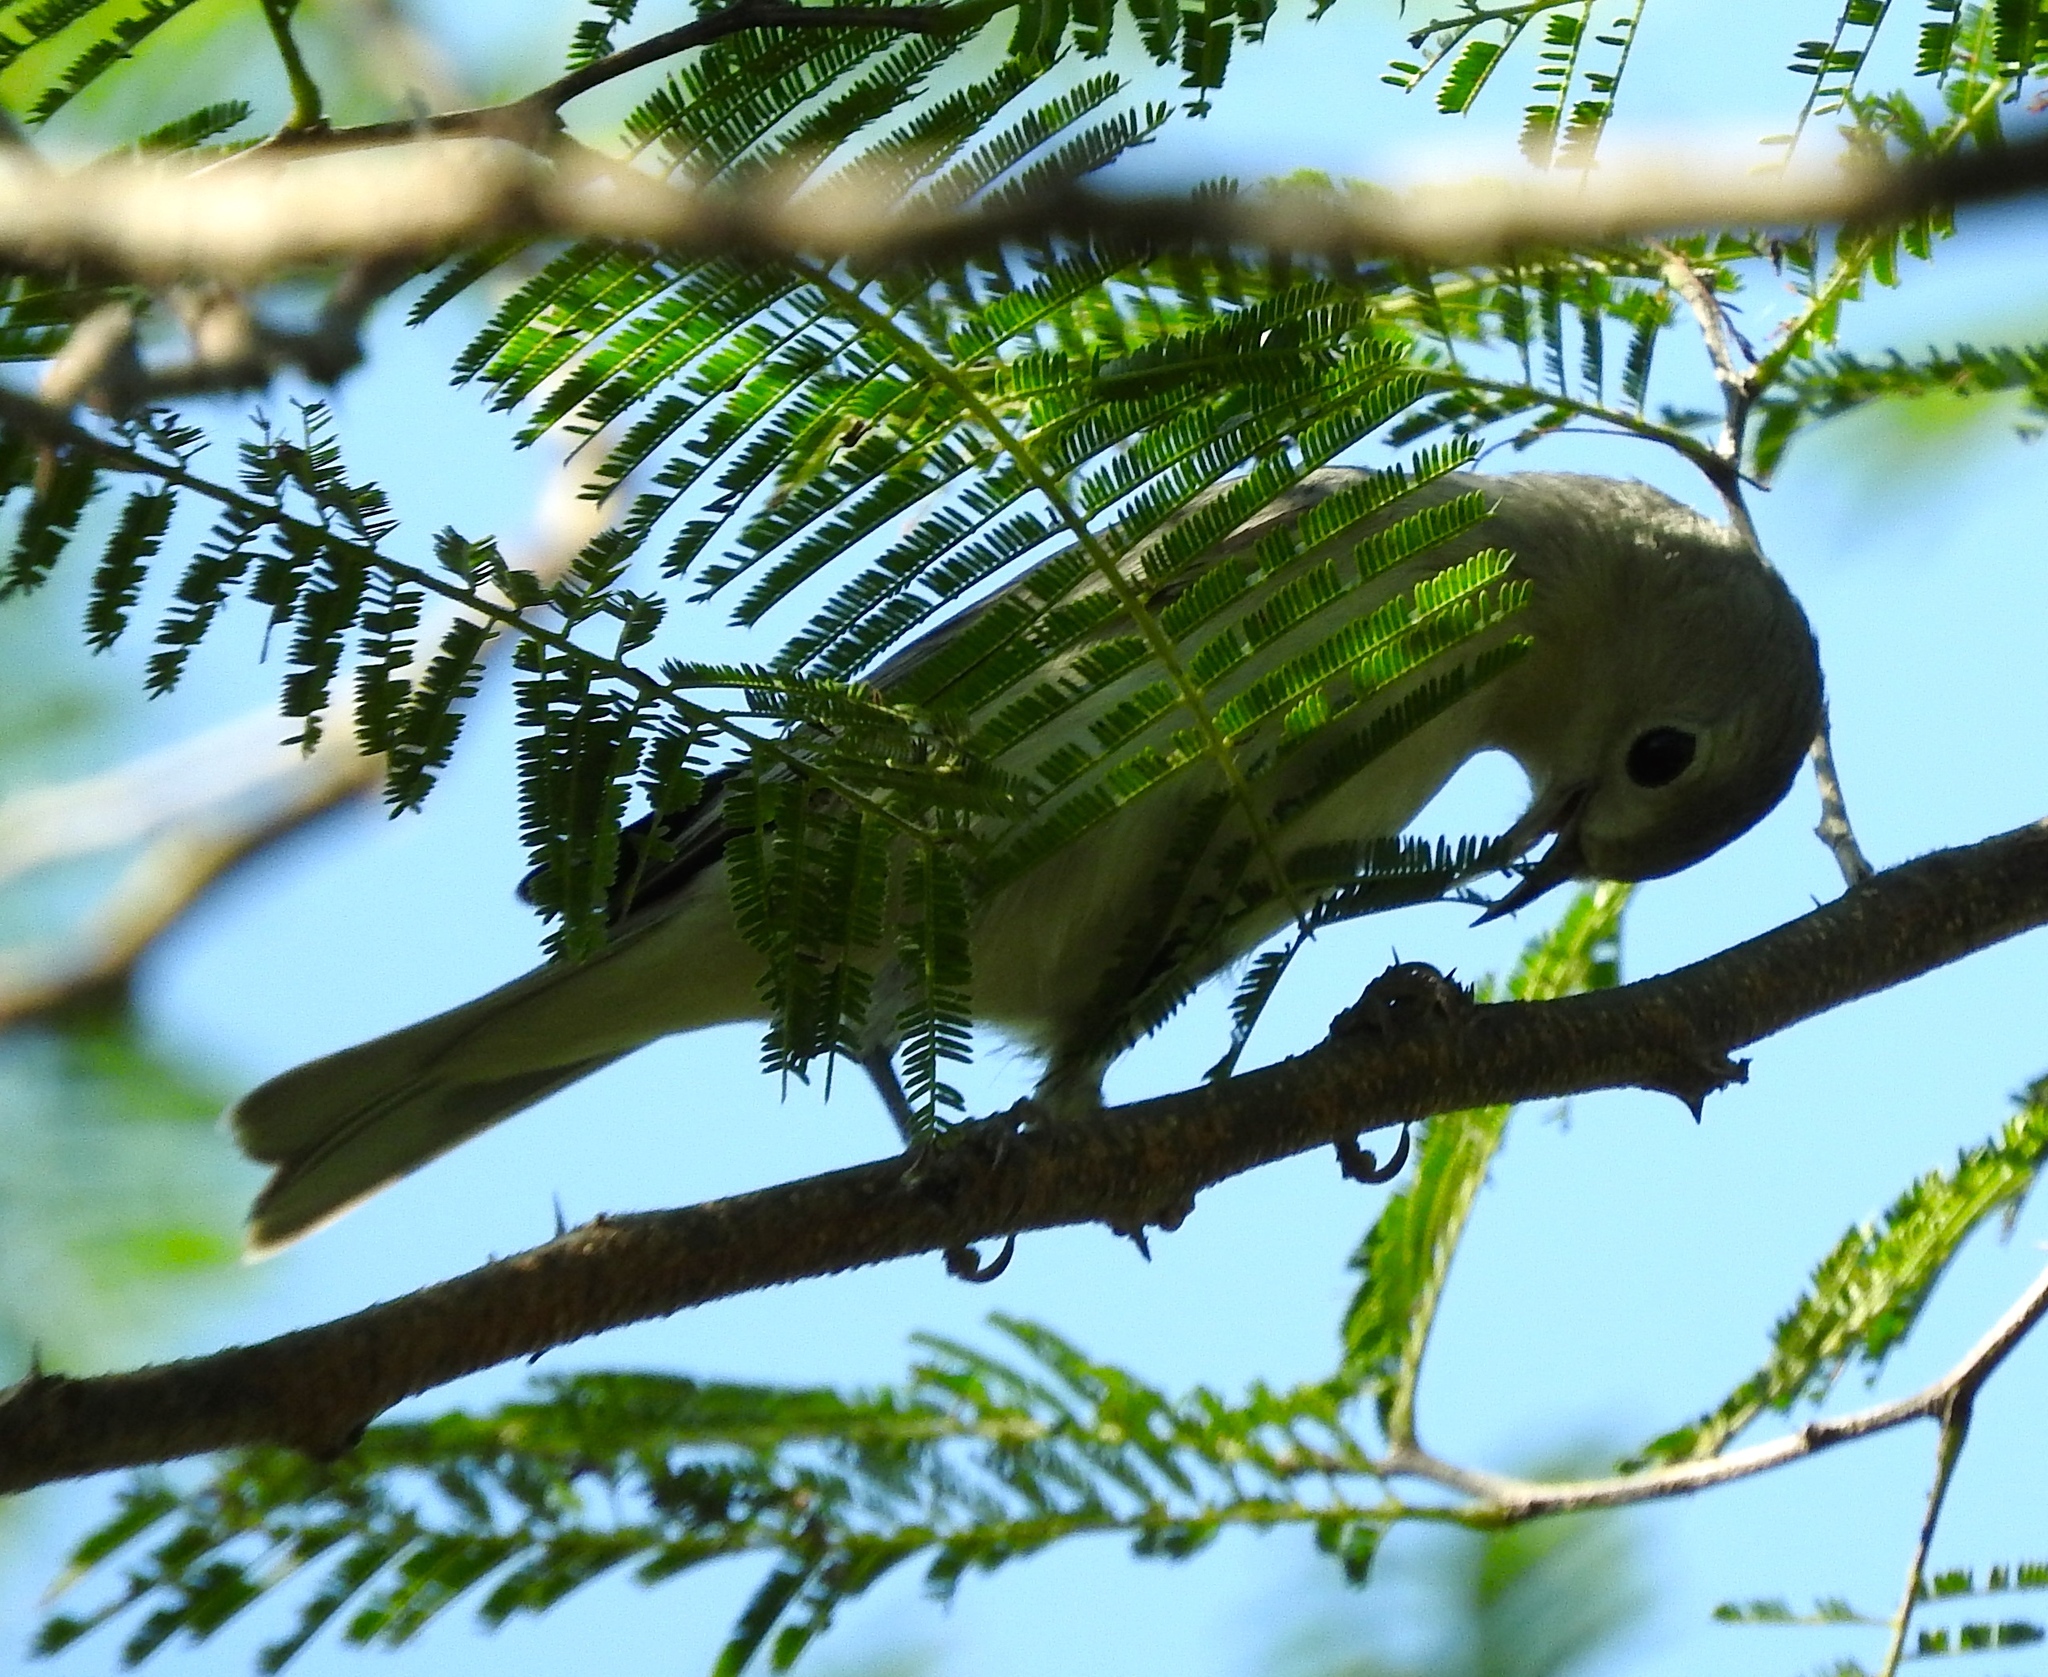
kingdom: Animalia
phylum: Chordata
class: Aves
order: Passeriformes
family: Parulidae
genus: Leiothlypis
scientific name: Leiothlypis luciae
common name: Lucy's warbler
